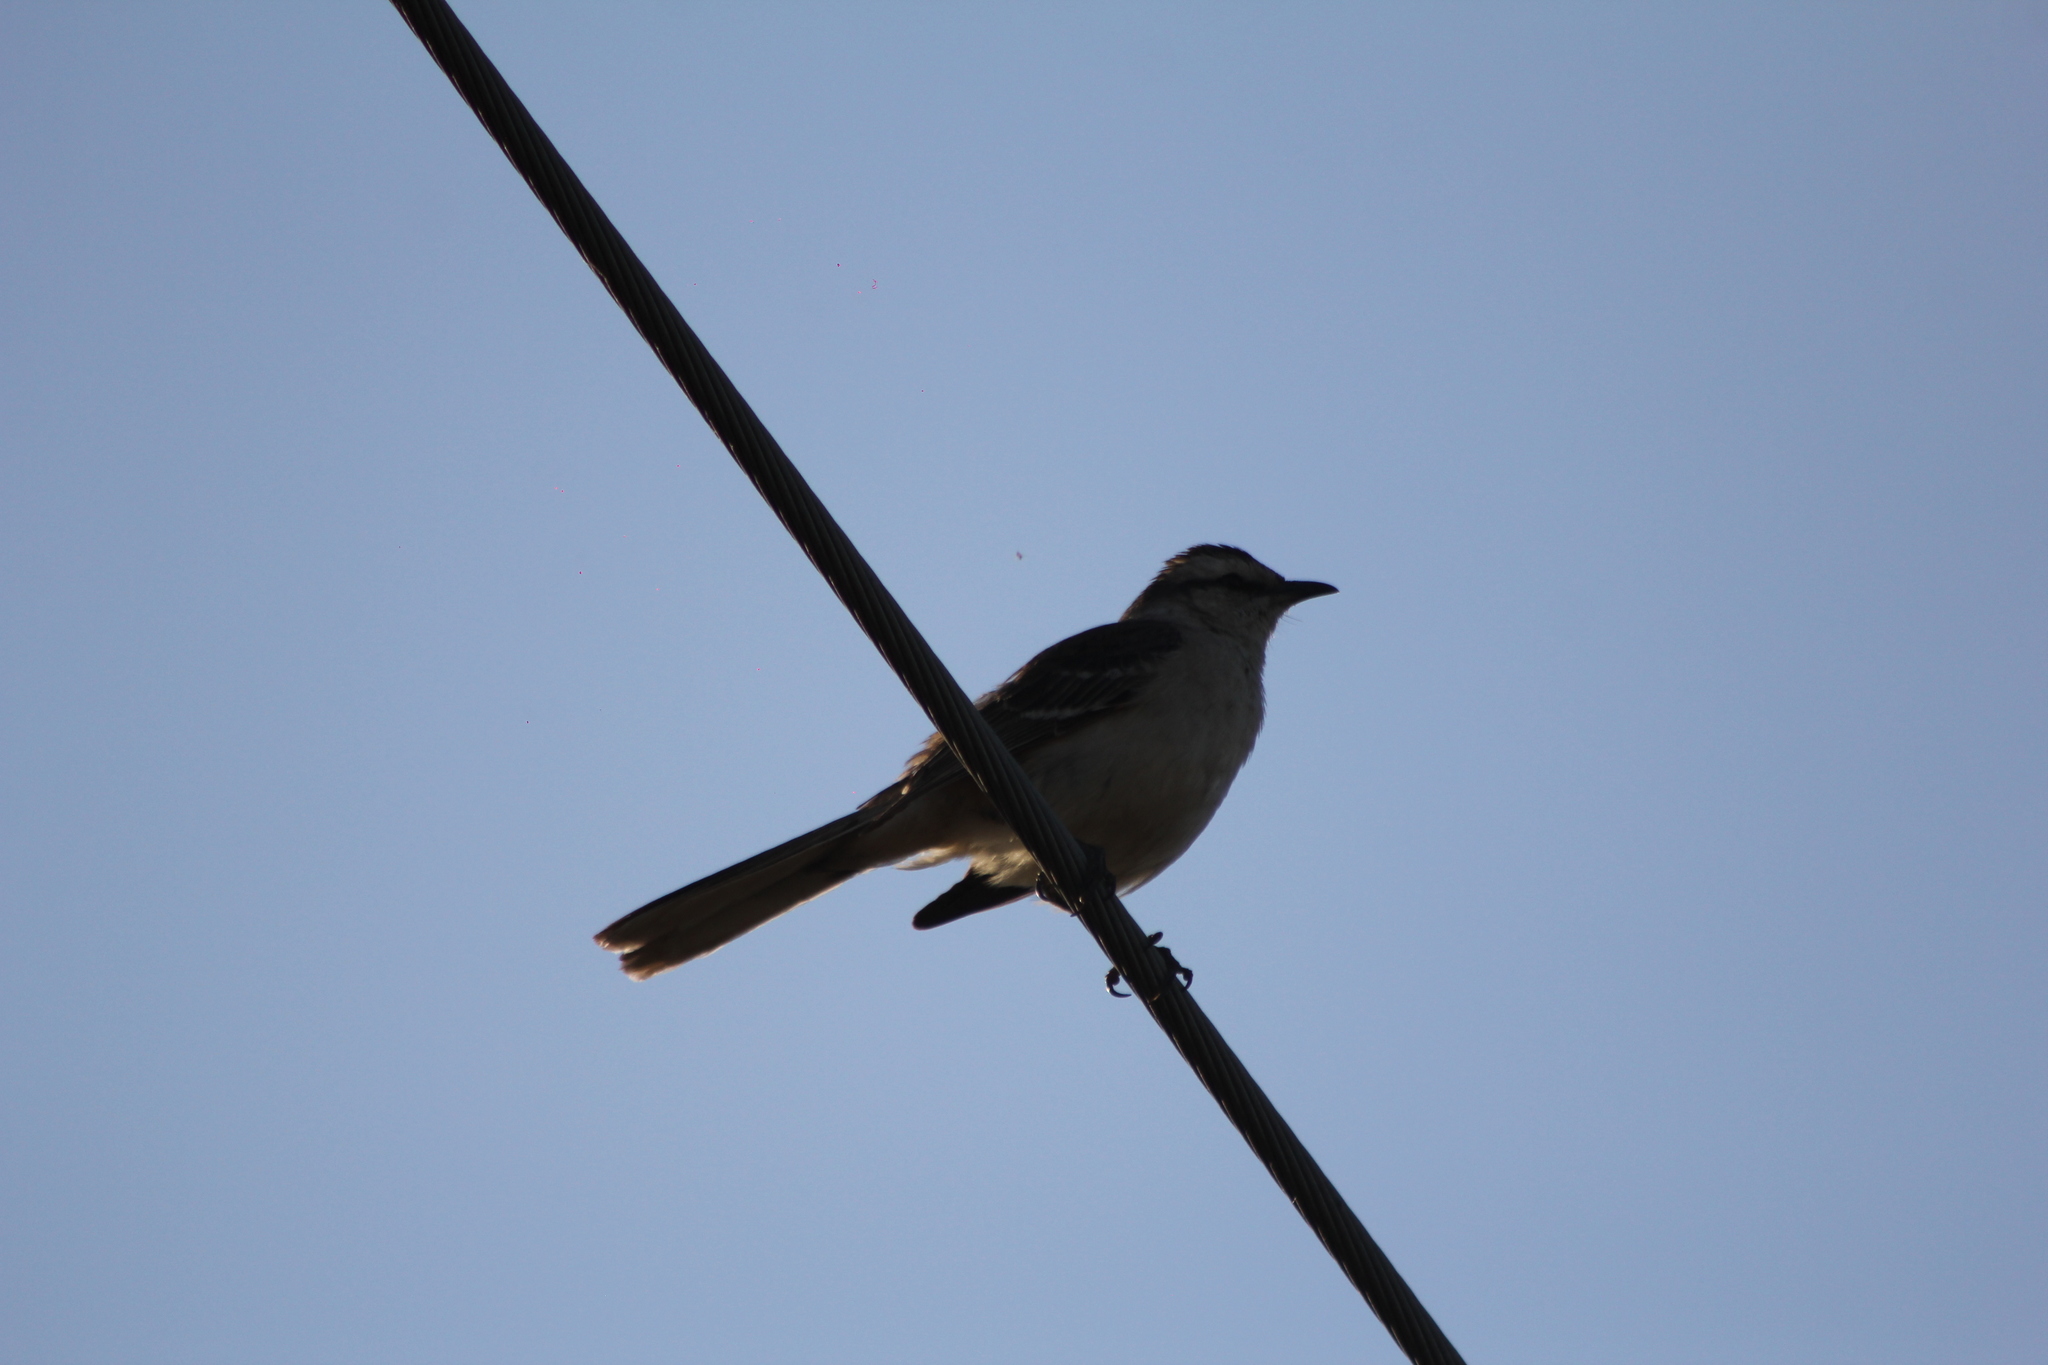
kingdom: Animalia
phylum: Chordata
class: Aves
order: Passeriformes
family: Mimidae
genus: Mimus
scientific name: Mimus saturninus
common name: Chalk-browed mockingbird
